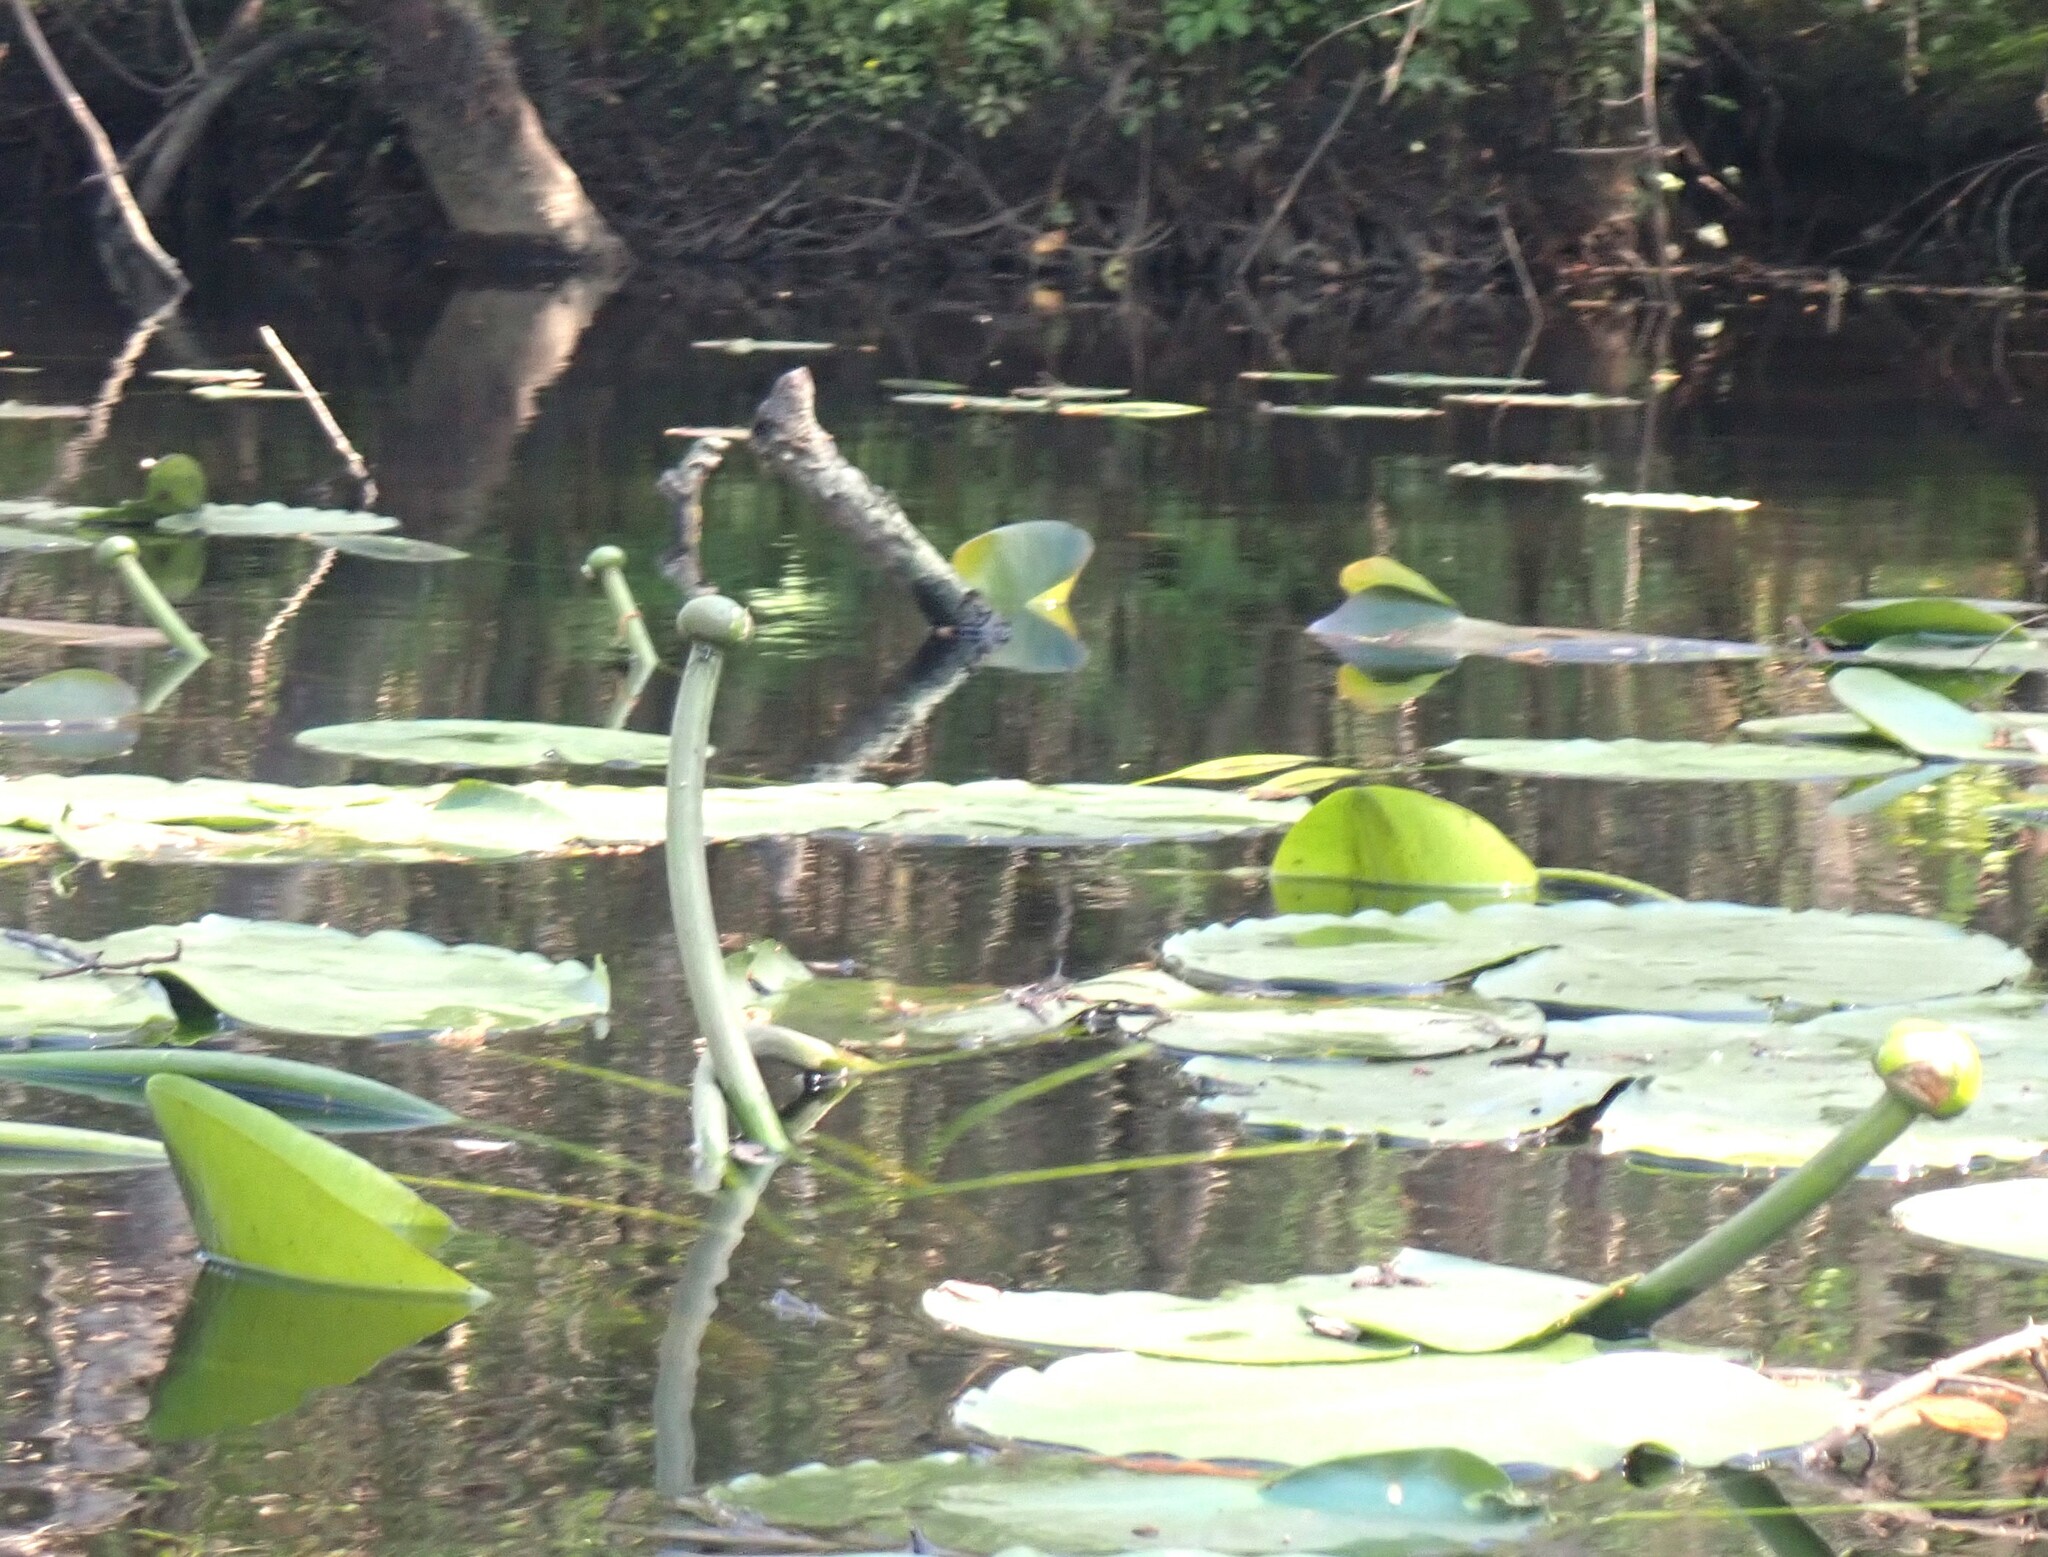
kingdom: Plantae
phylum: Tracheophyta
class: Magnoliopsida
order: Nymphaeales
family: Nymphaeaceae
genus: Nuphar
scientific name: Nuphar advena
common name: Spatter-dock
